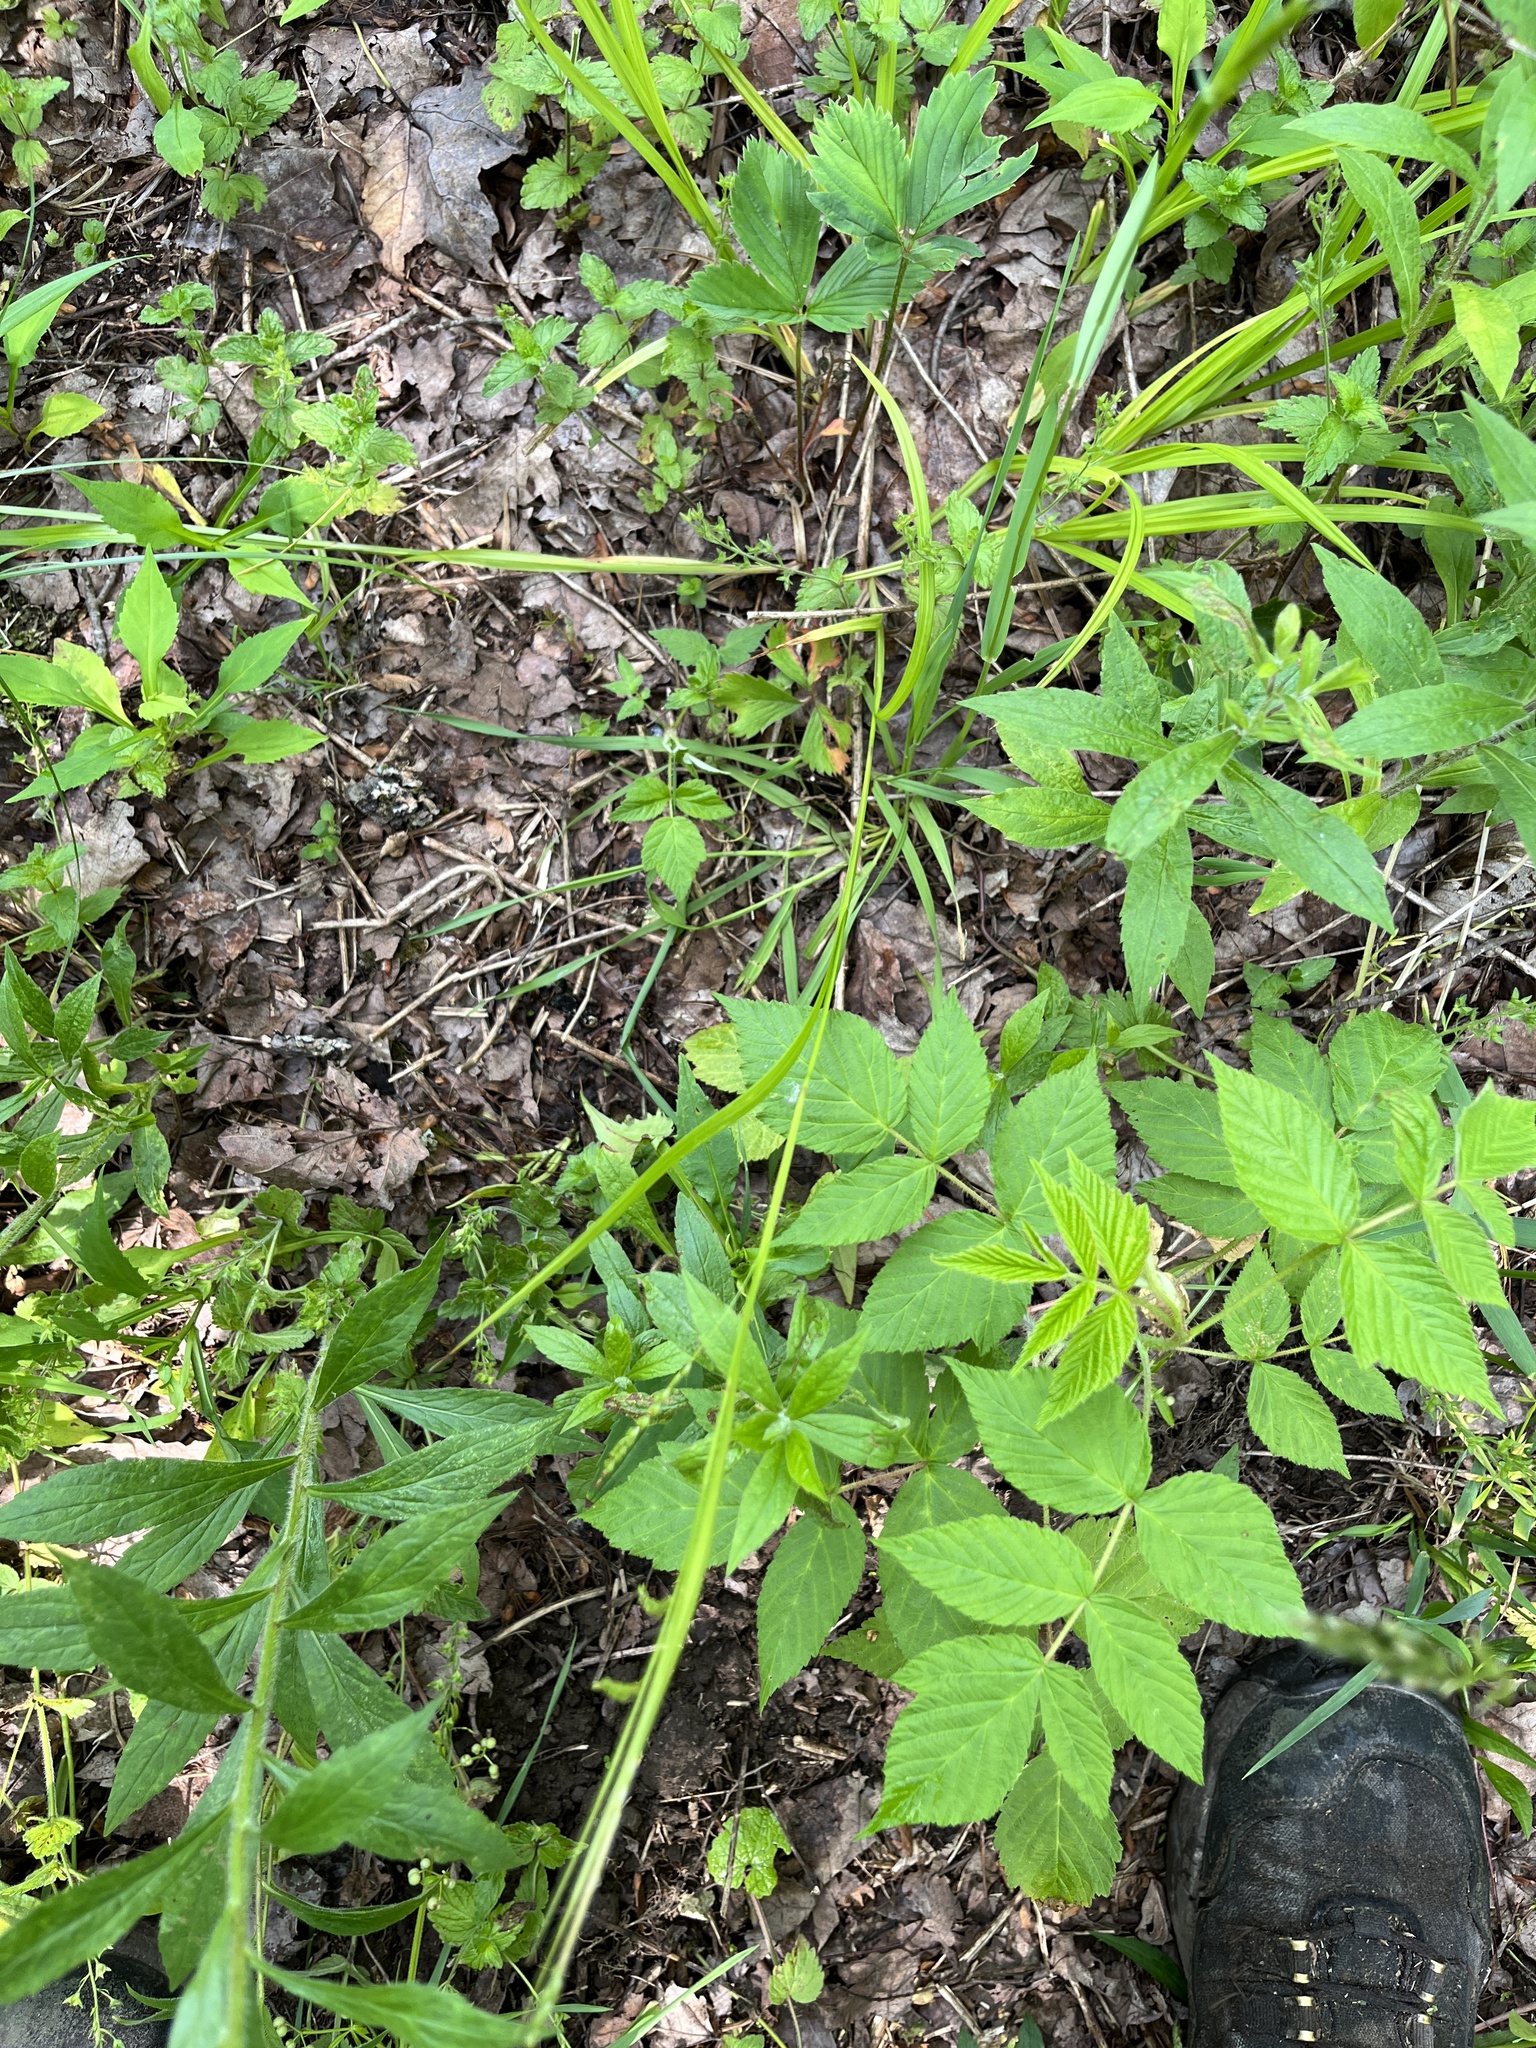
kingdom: Plantae
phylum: Tracheophyta
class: Liliopsida
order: Poales
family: Cyperaceae
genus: Carex
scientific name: Carex gracillima
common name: Graceful sedge
